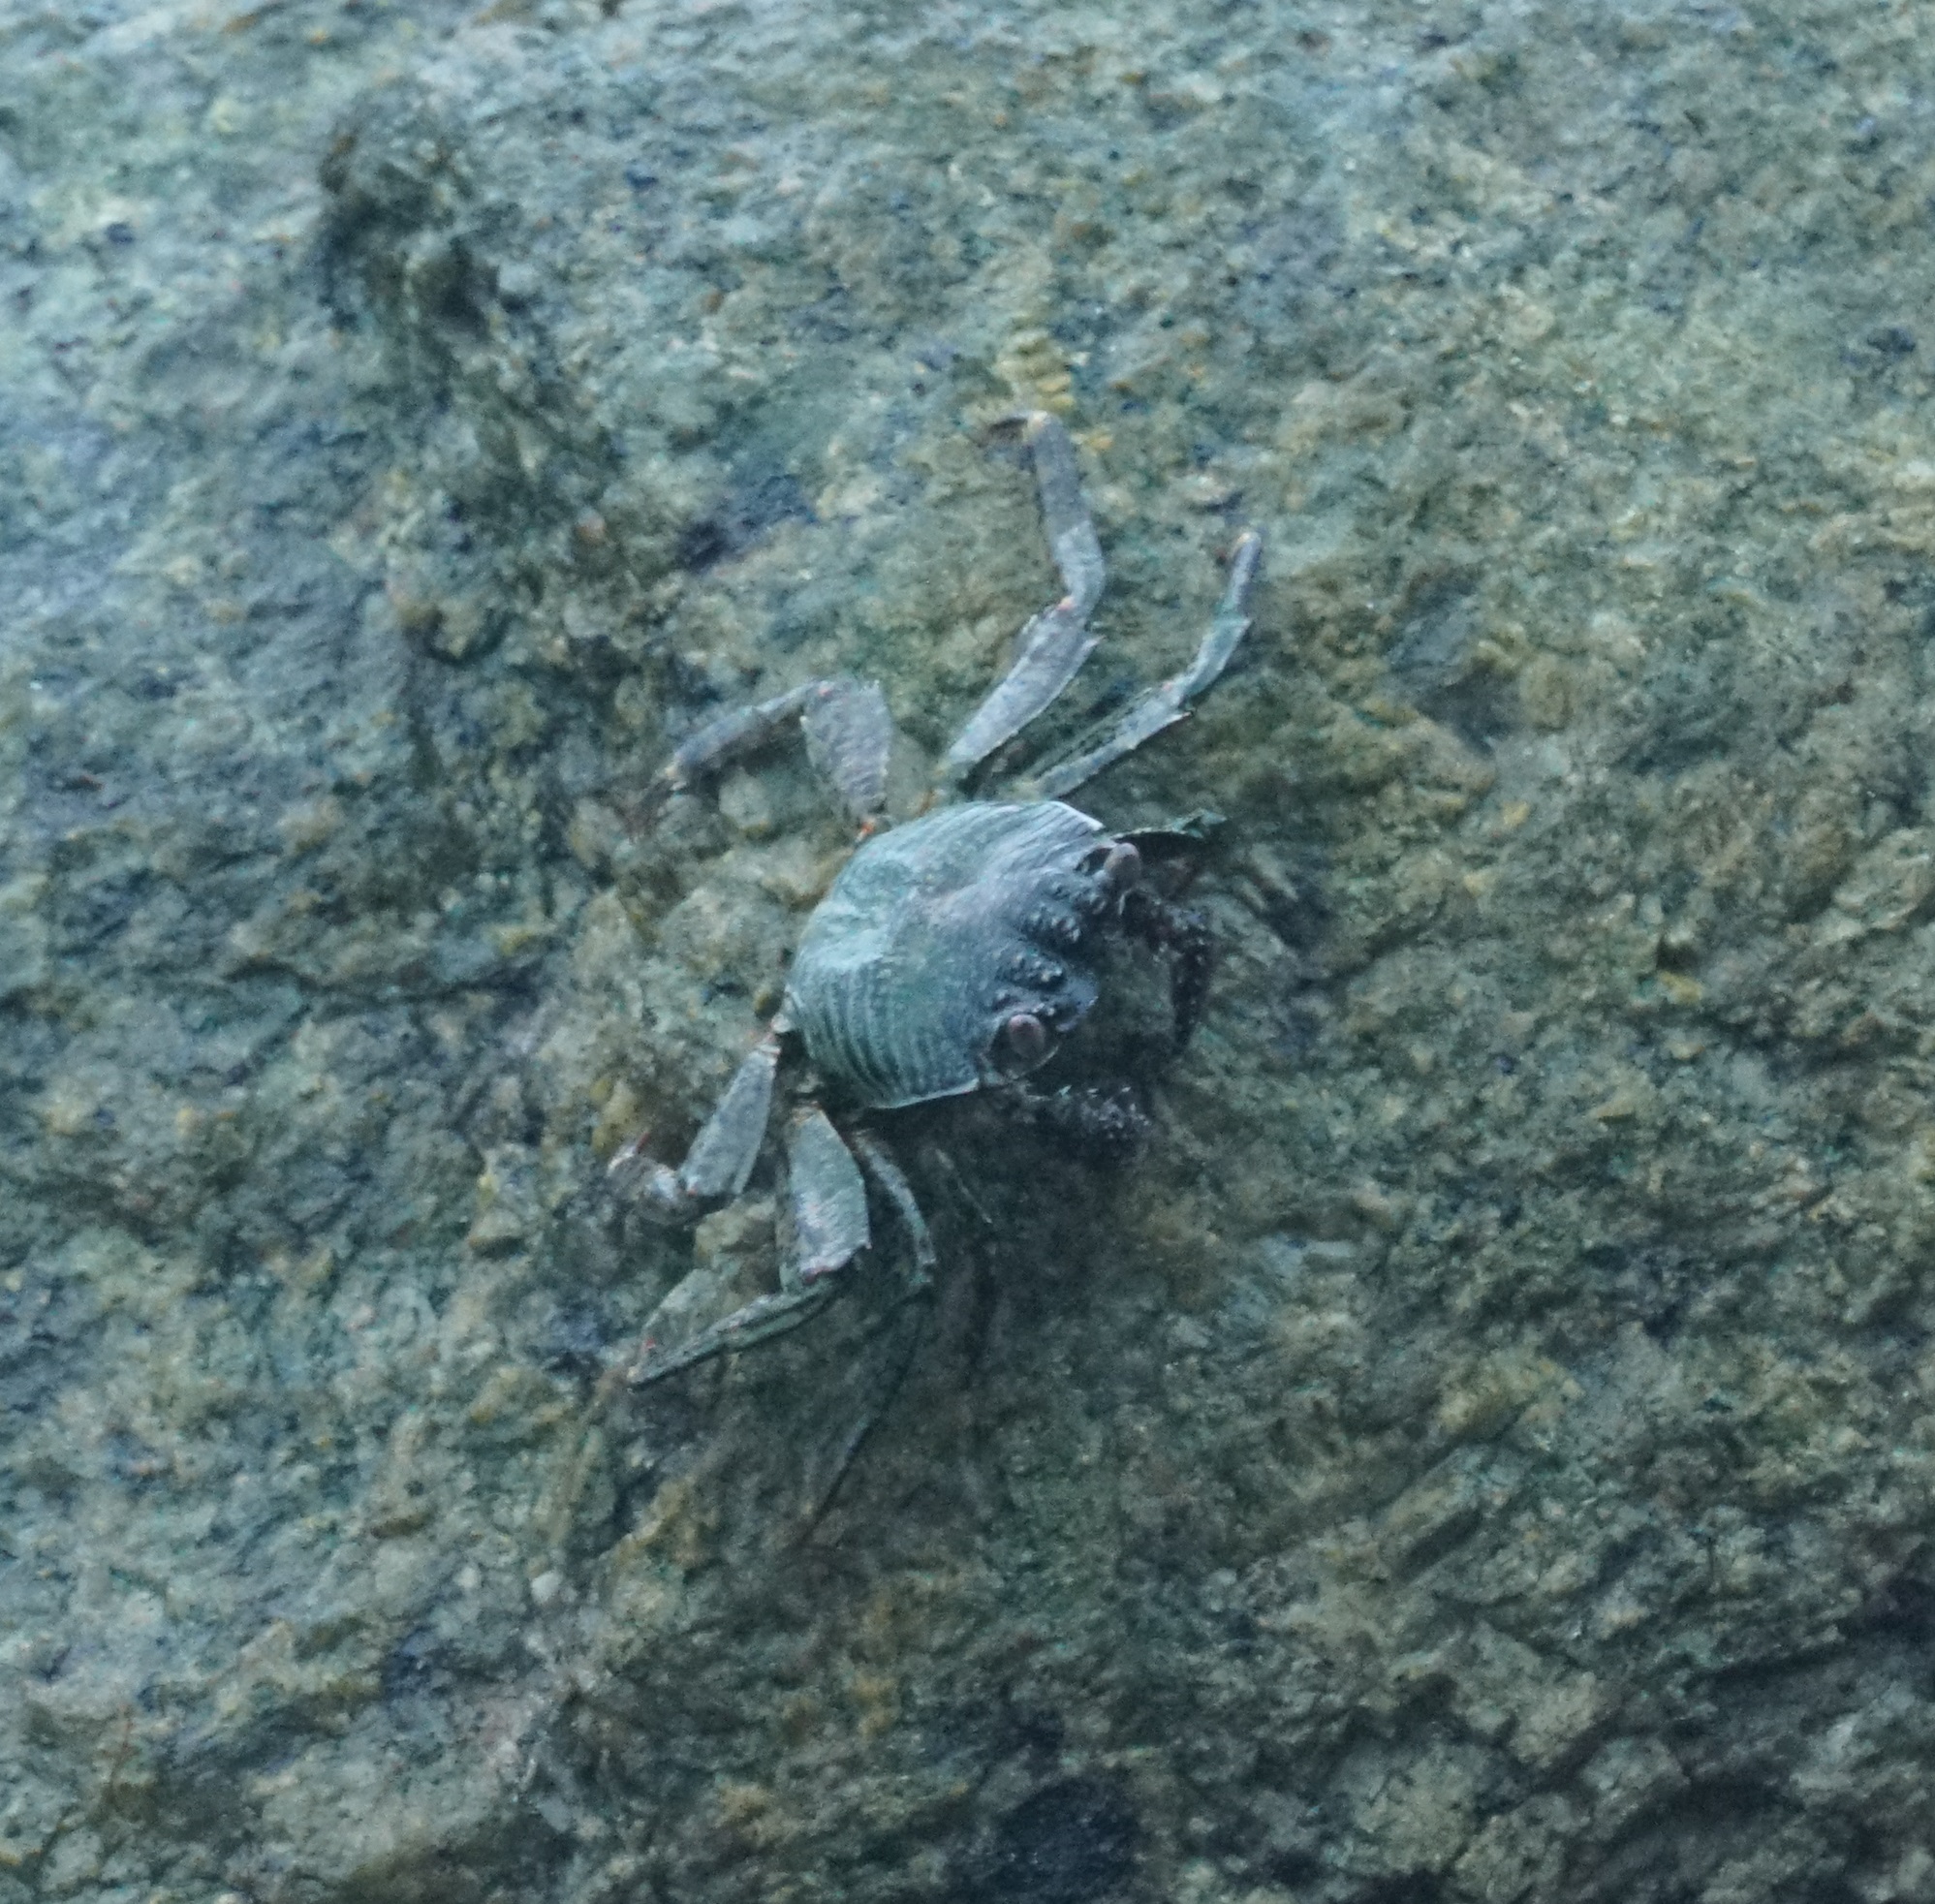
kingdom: Animalia
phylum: Arthropoda
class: Malacostraca
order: Decapoda
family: Grapsidae
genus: Grapsus
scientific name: Grapsus albolineatus
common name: Mottled lightfoot crab
